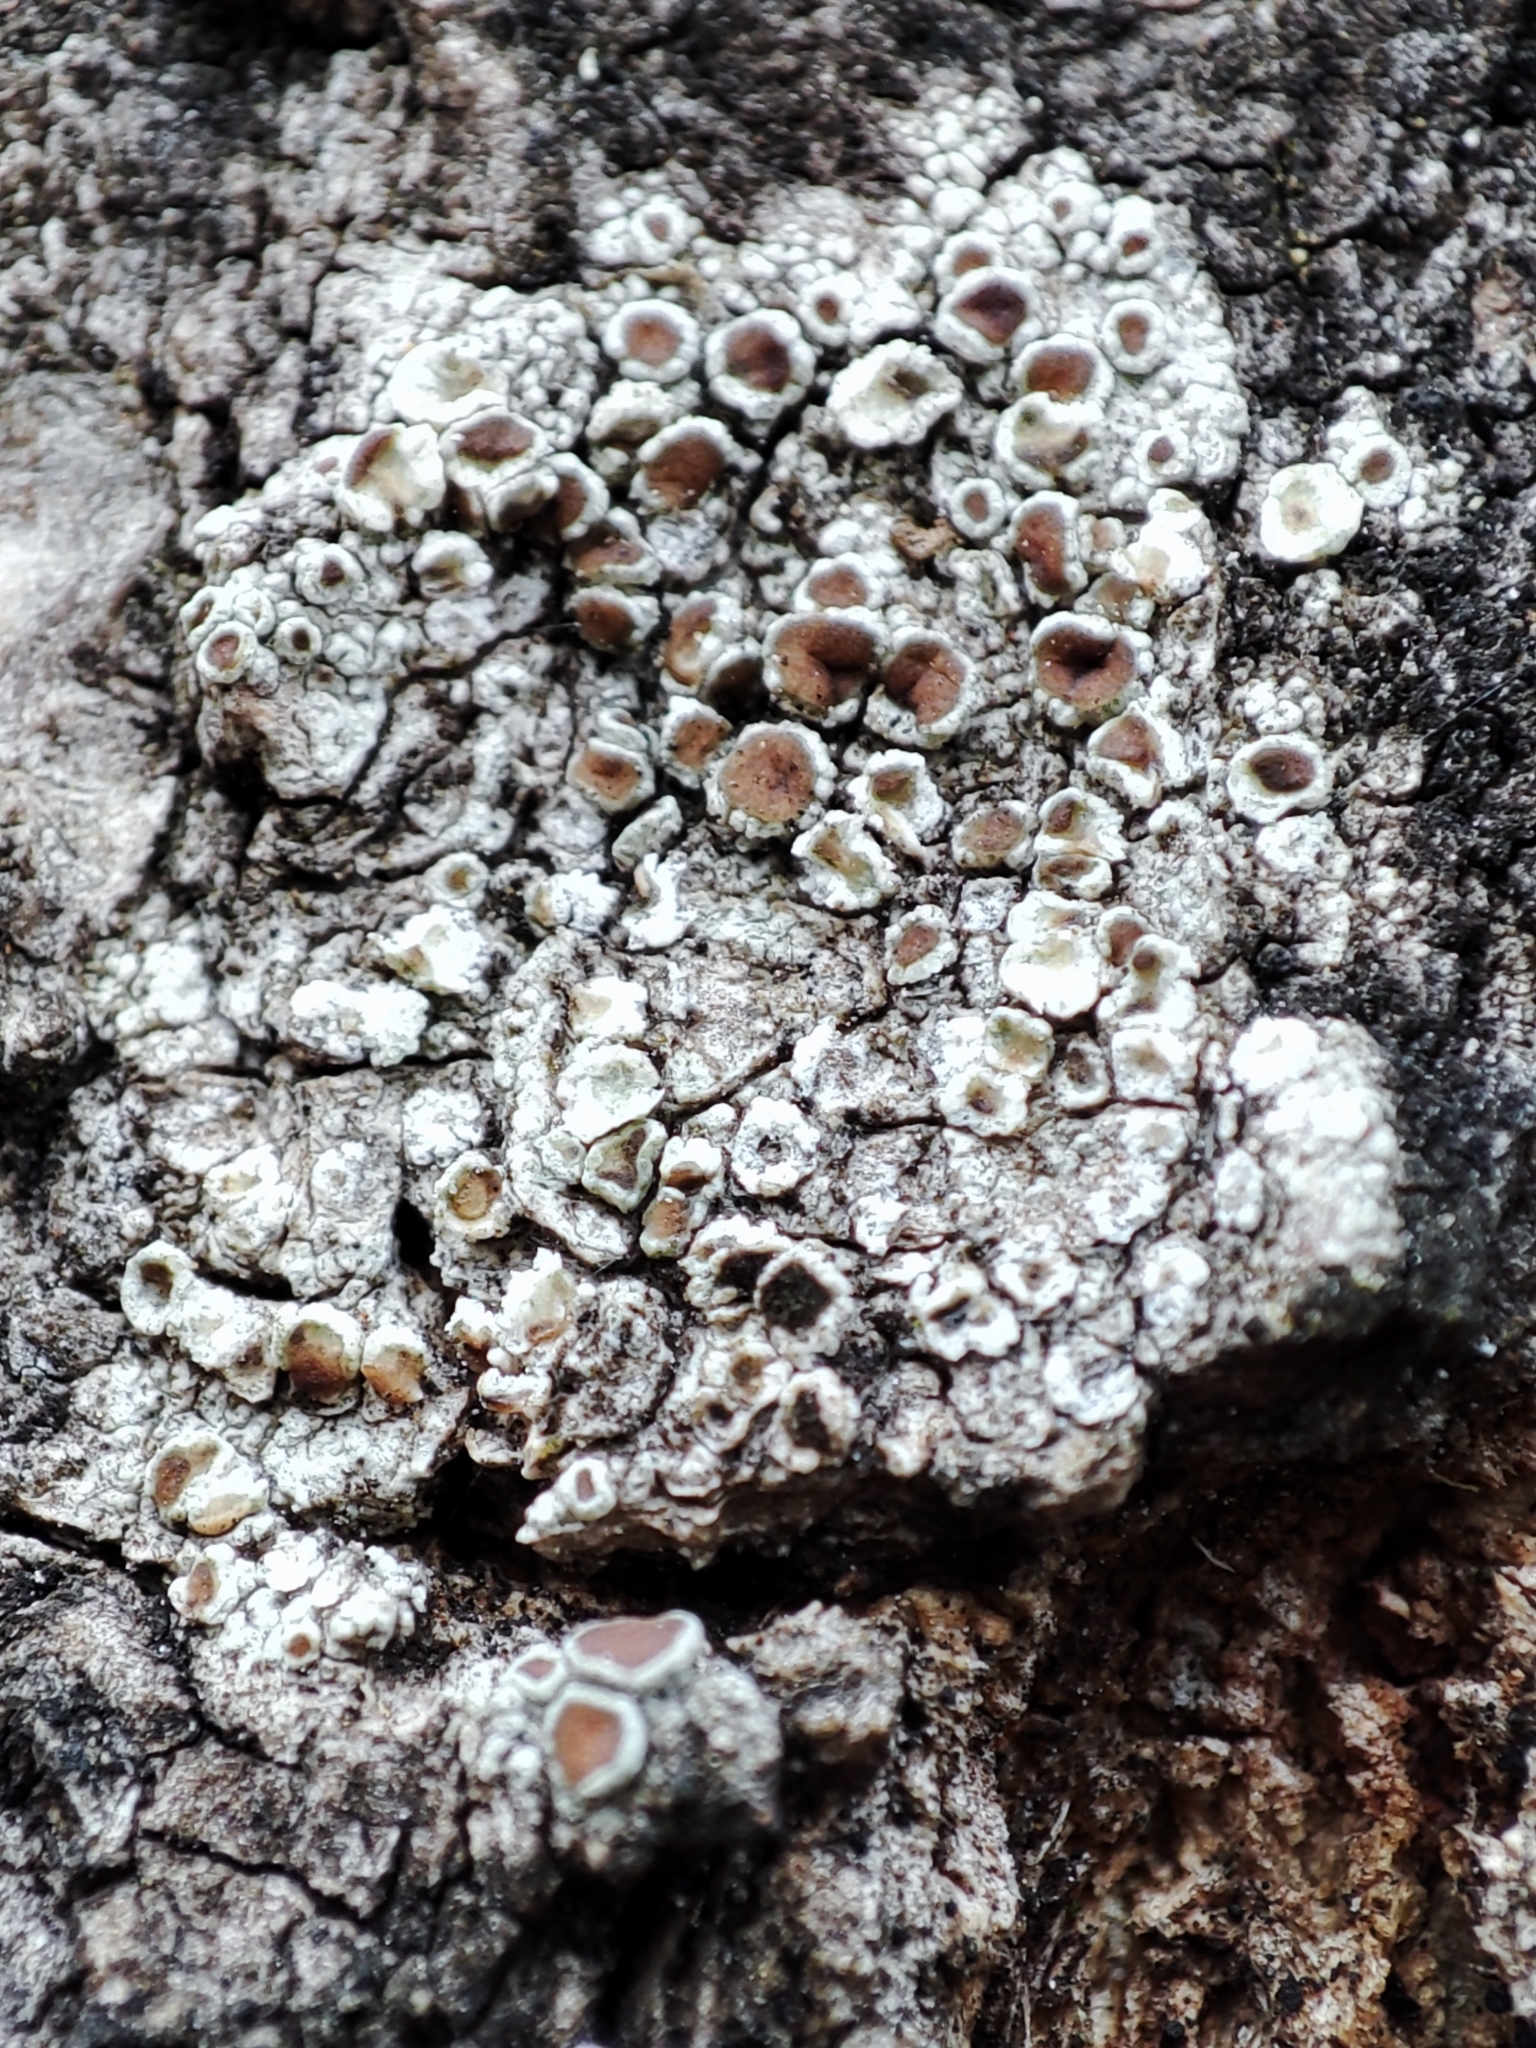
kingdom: Fungi
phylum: Ascomycota
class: Lecanoromycetes
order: Lecanorales
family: Lecanoraceae
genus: Lecanora
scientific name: Lecanora argentata
